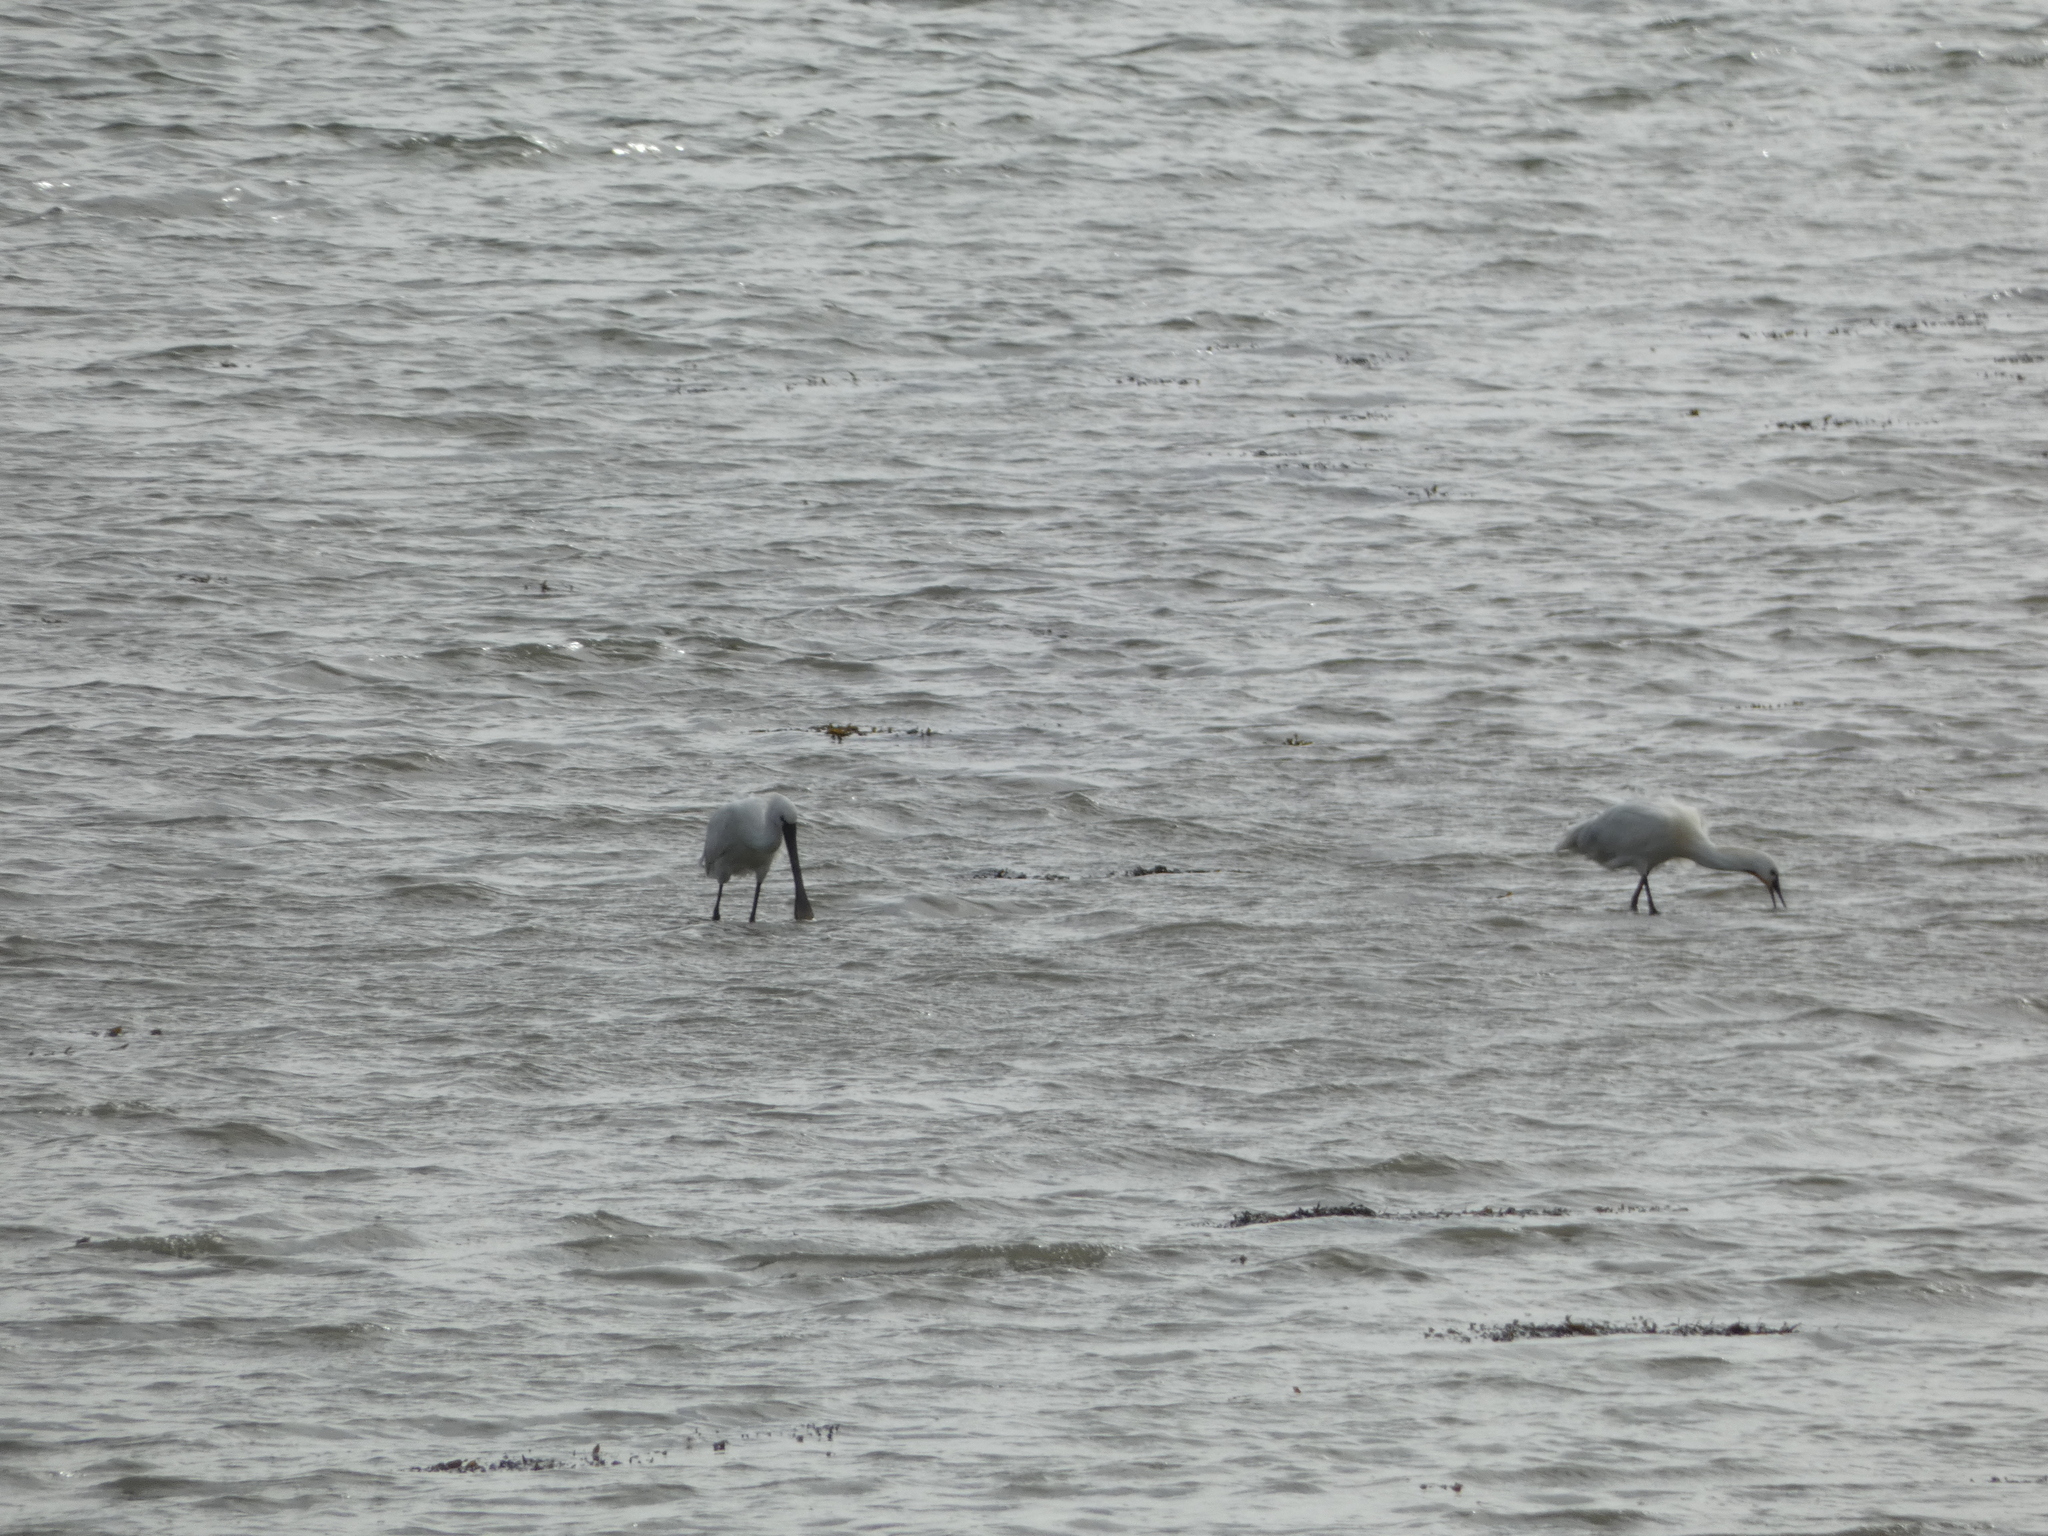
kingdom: Animalia
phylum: Chordata
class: Aves
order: Pelecaniformes
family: Threskiornithidae
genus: Platalea
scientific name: Platalea leucorodia
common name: Eurasian spoonbill
